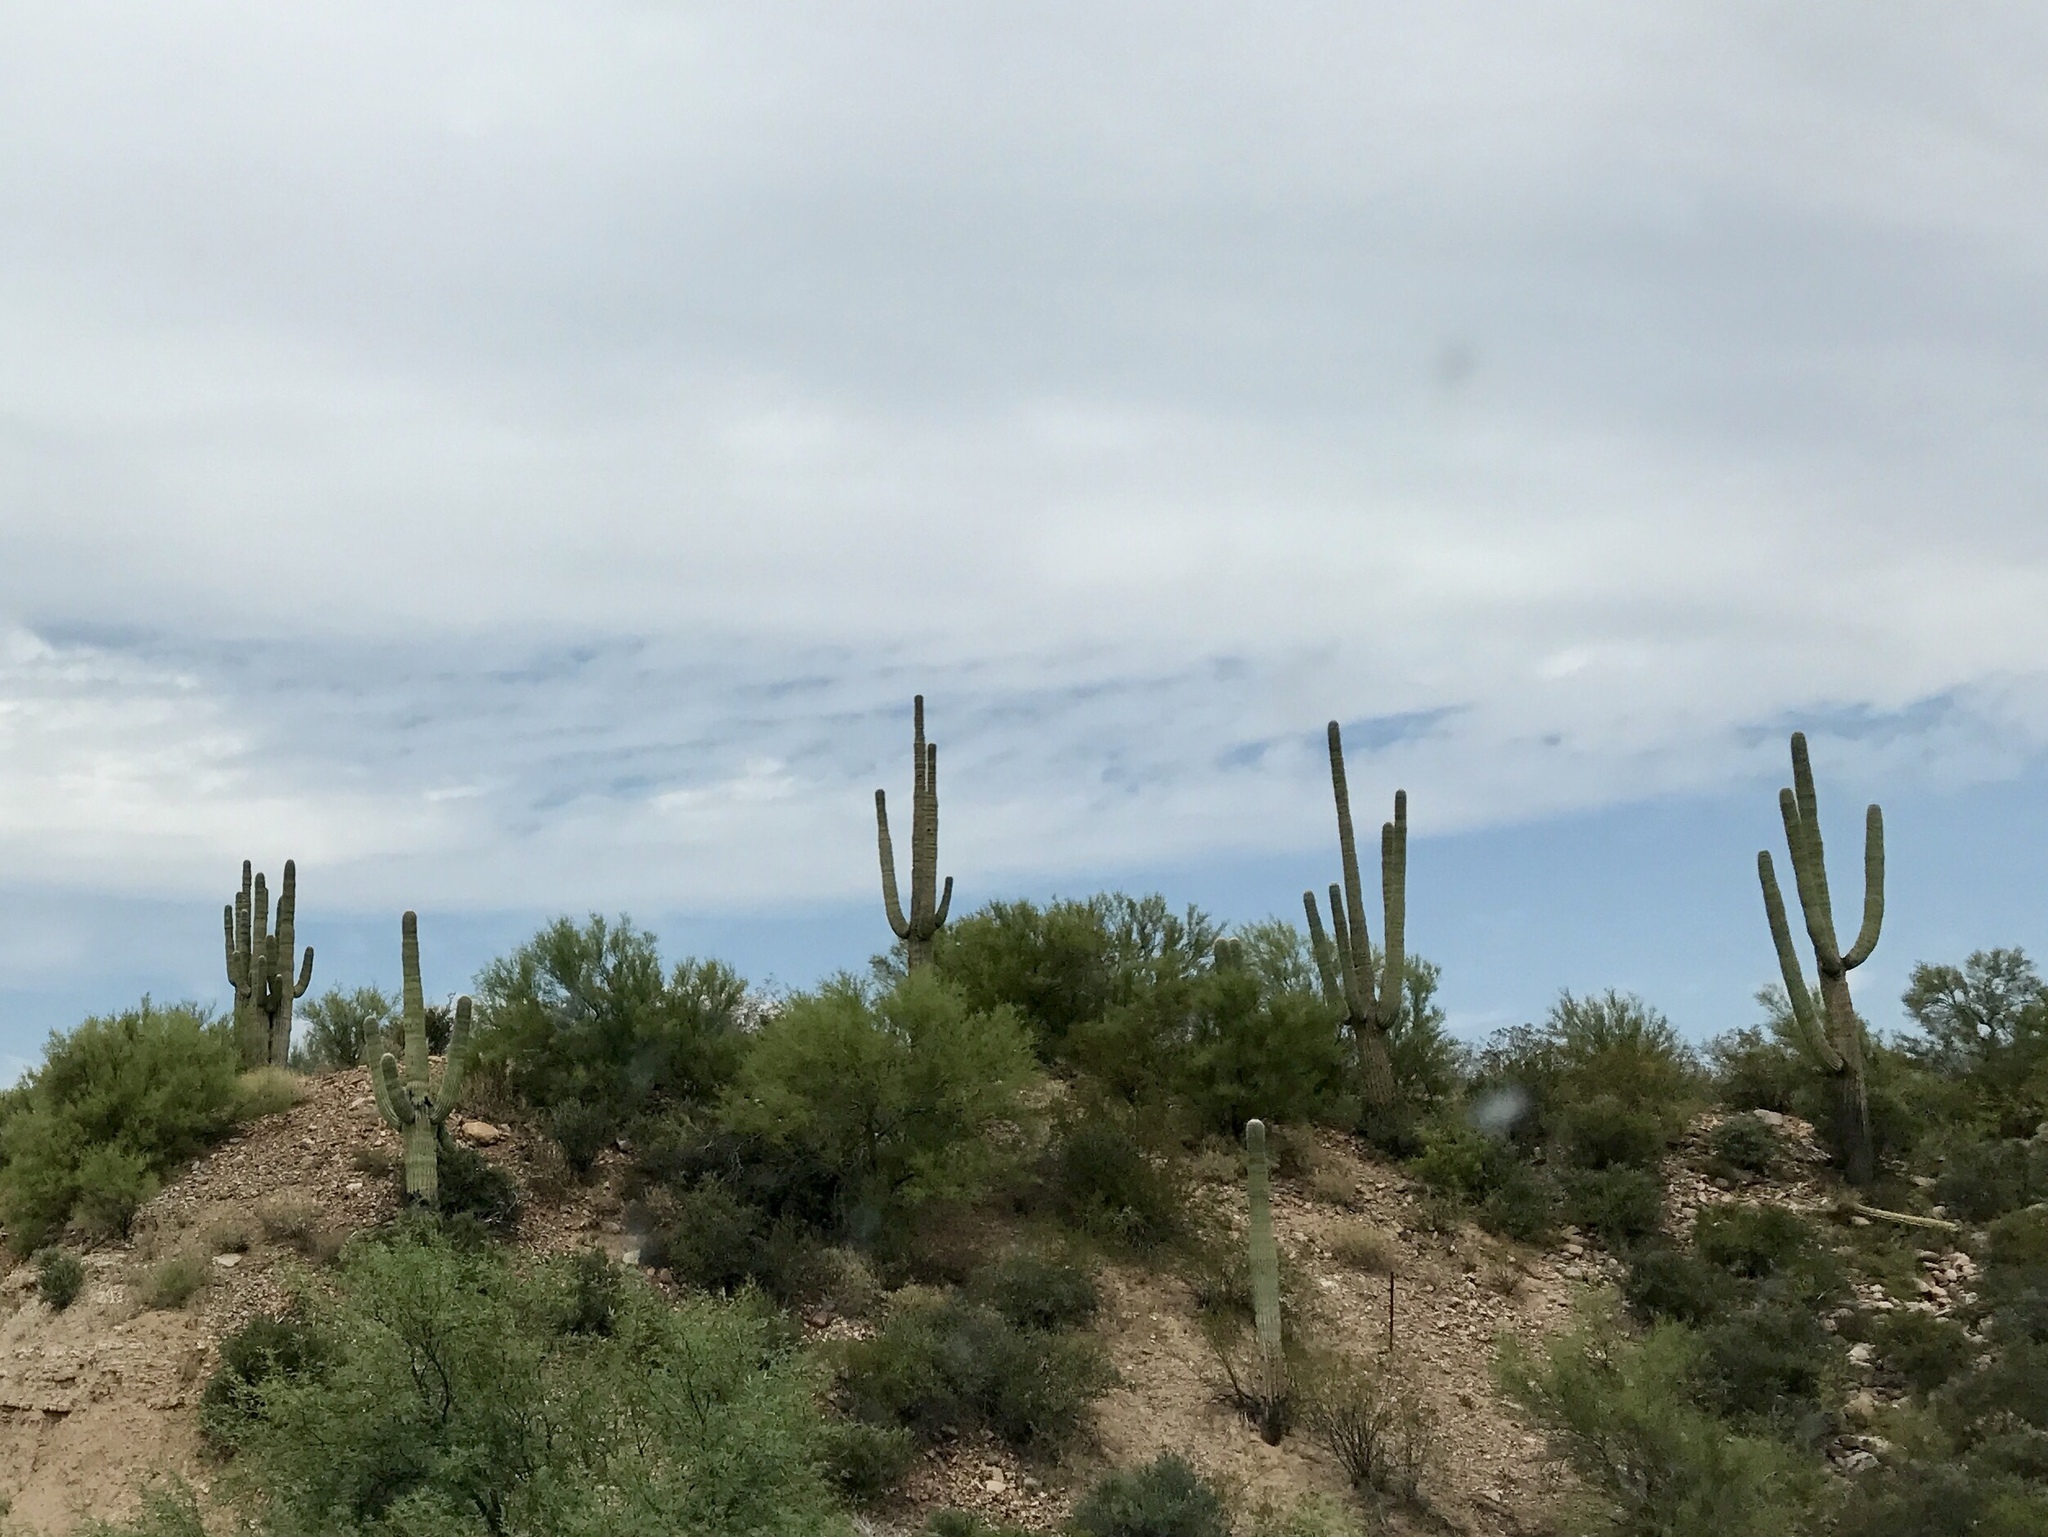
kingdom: Plantae
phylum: Tracheophyta
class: Magnoliopsida
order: Caryophyllales
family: Cactaceae
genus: Carnegiea
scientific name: Carnegiea gigantea
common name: Saguaro
